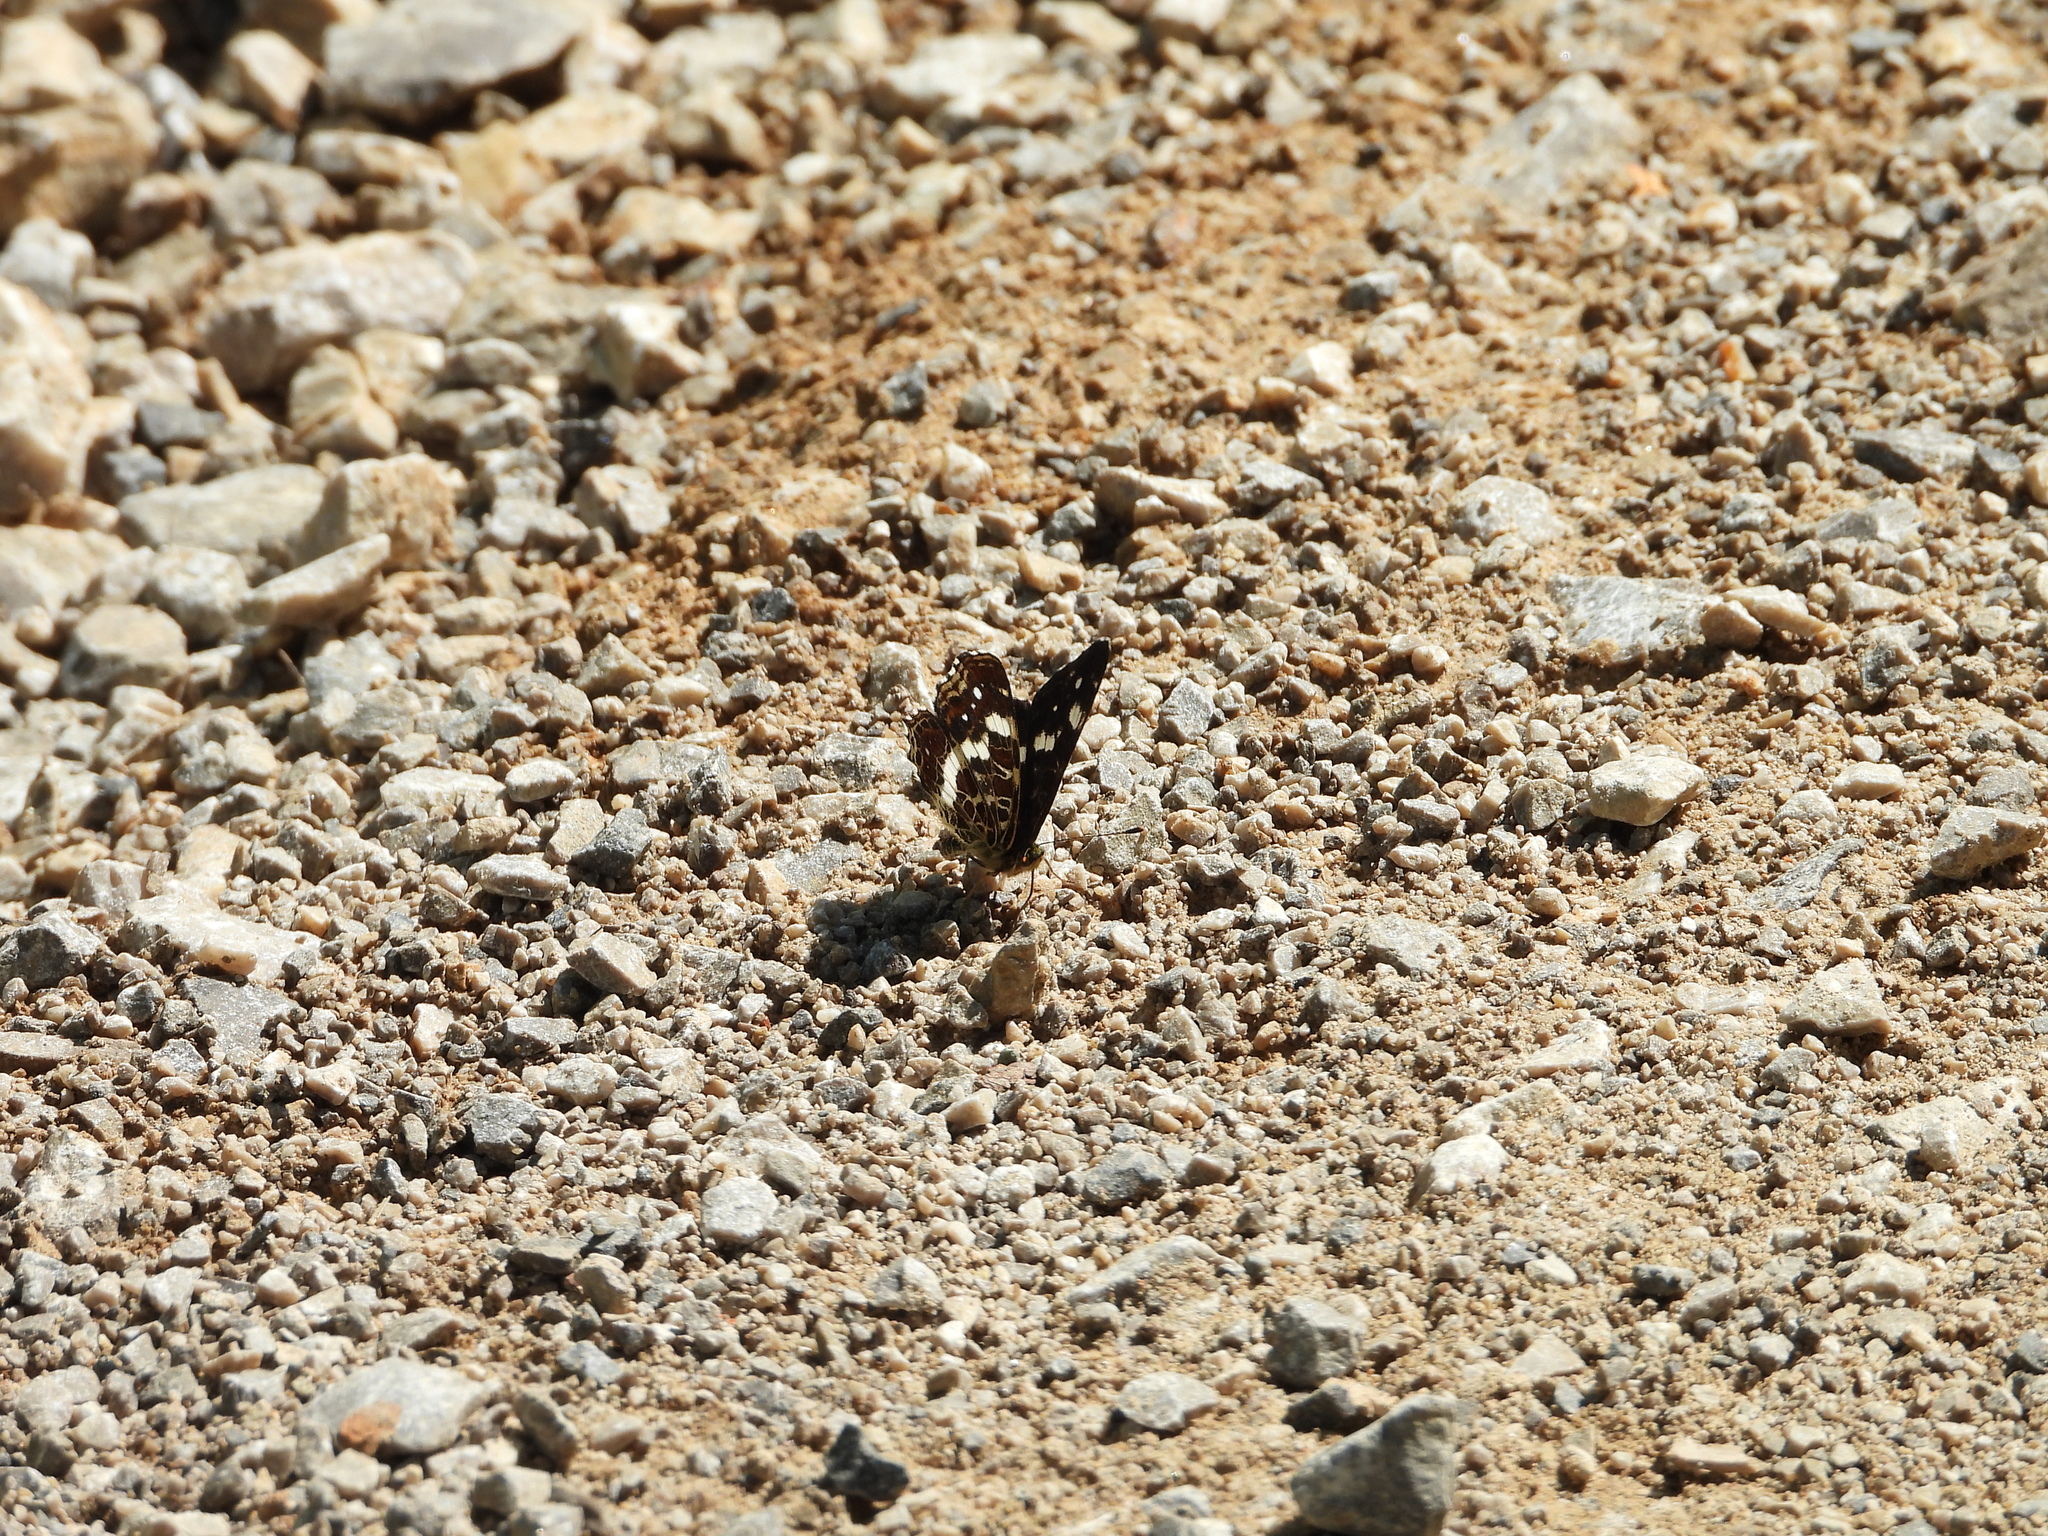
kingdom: Animalia
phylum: Arthropoda
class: Insecta
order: Lepidoptera
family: Nymphalidae
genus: Araschnia
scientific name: Araschnia levana
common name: Map butterfly
